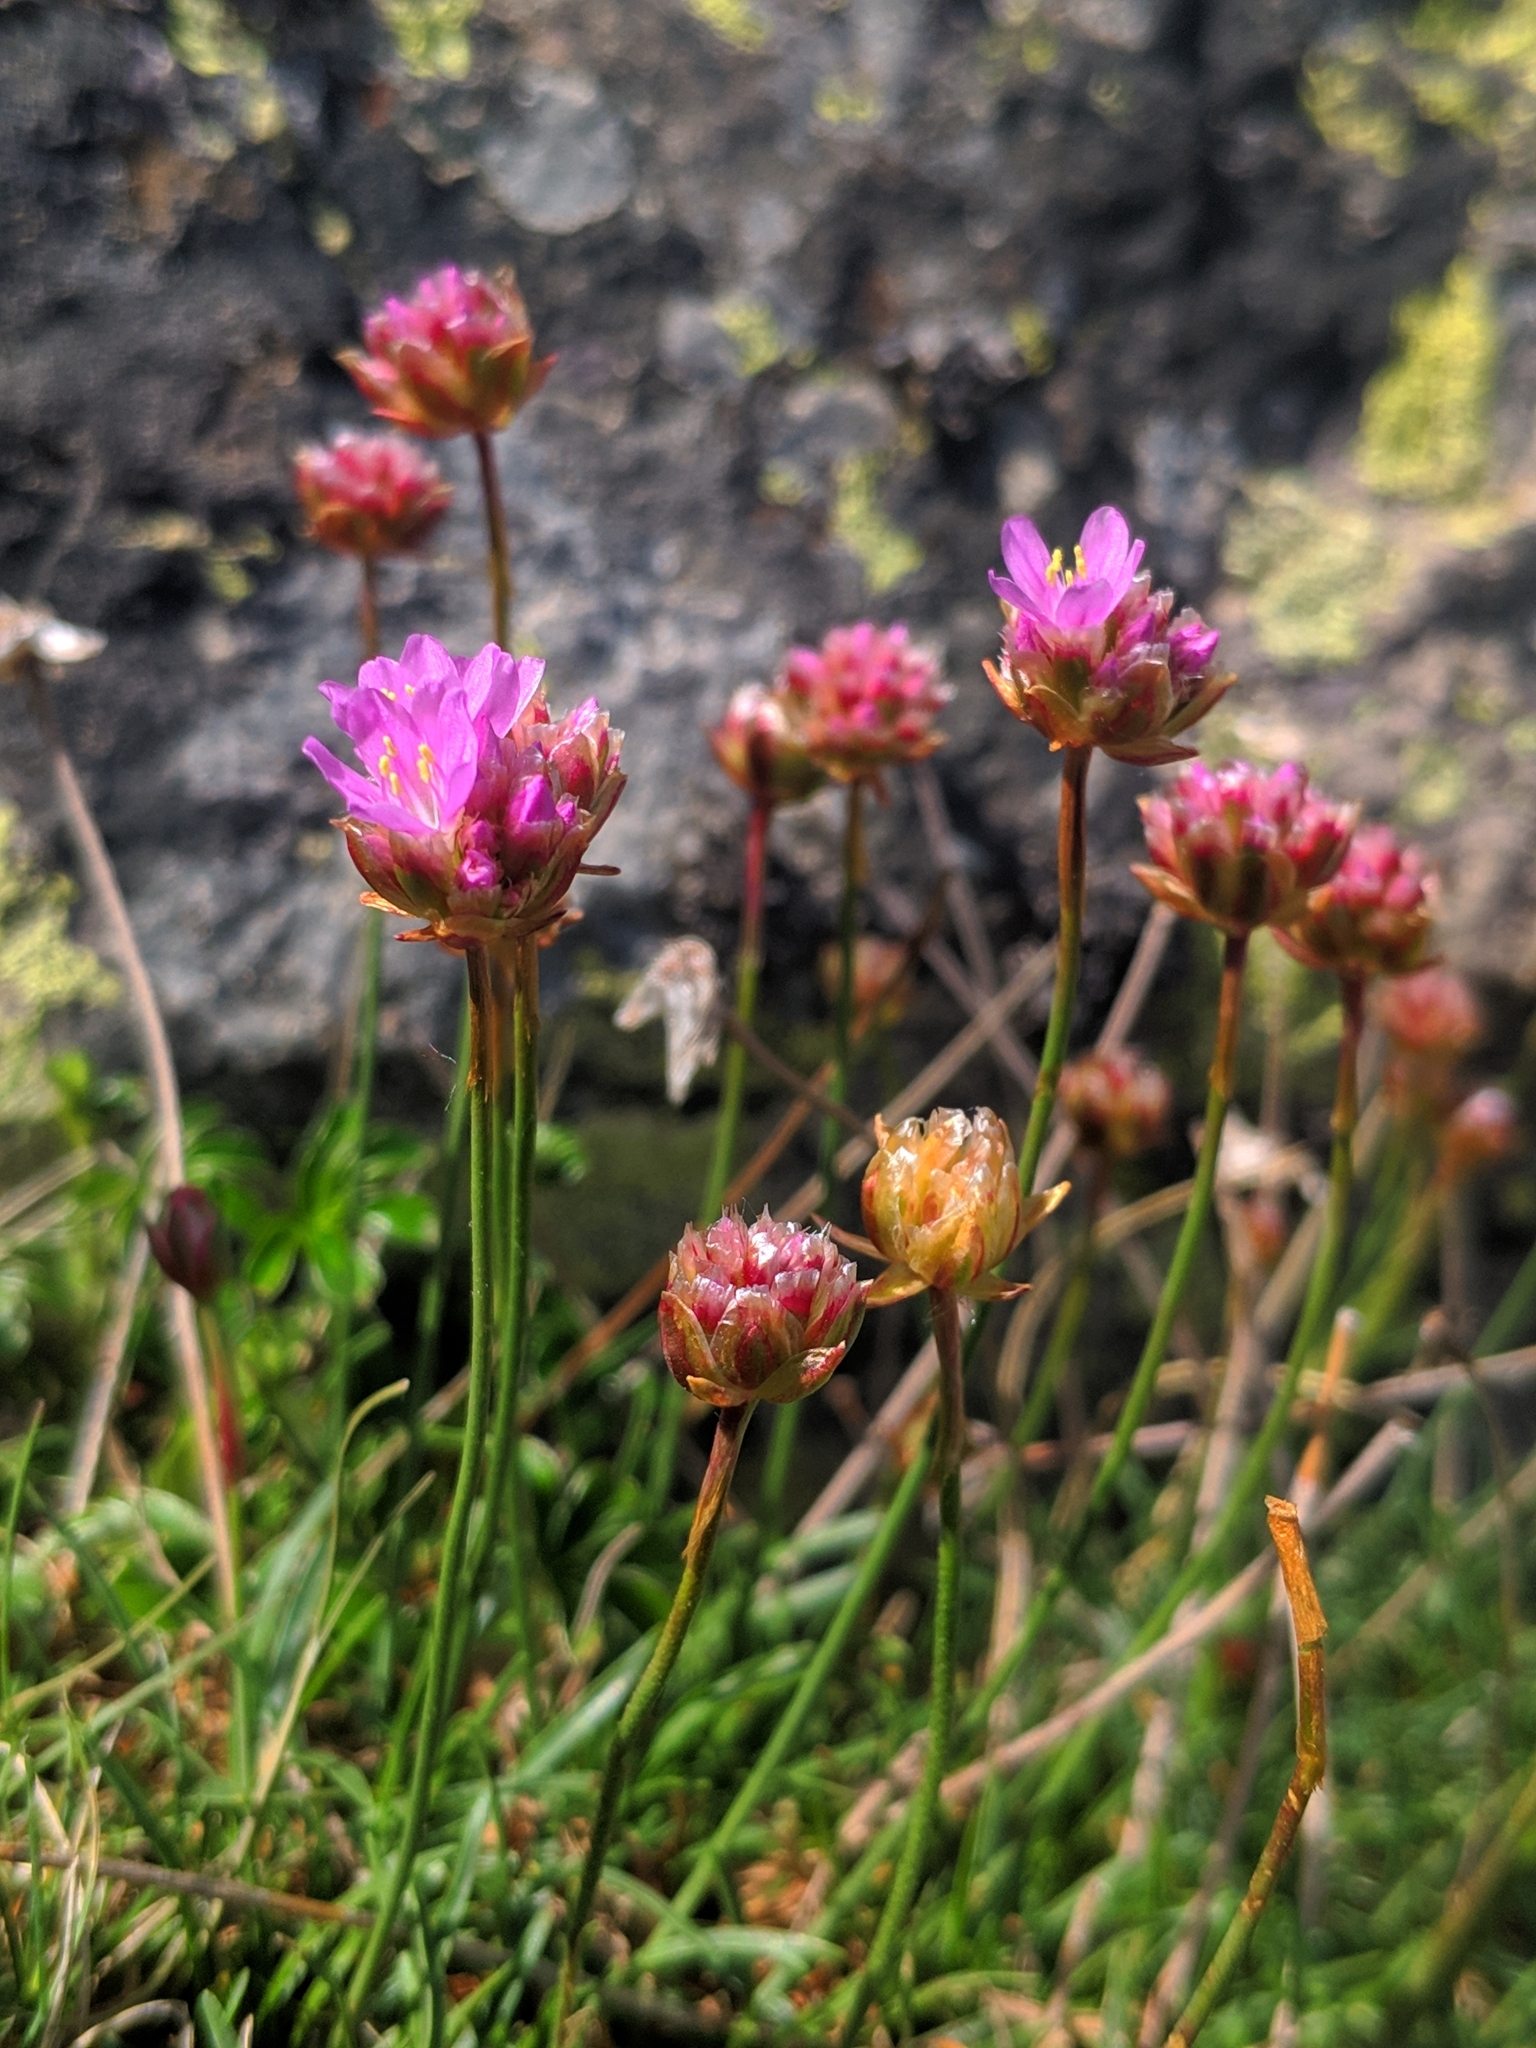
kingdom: Plantae
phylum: Tracheophyta
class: Magnoliopsida
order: Caryophyllales
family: Plumbaginaceae
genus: Armeria
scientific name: Armeria bigerrensis
